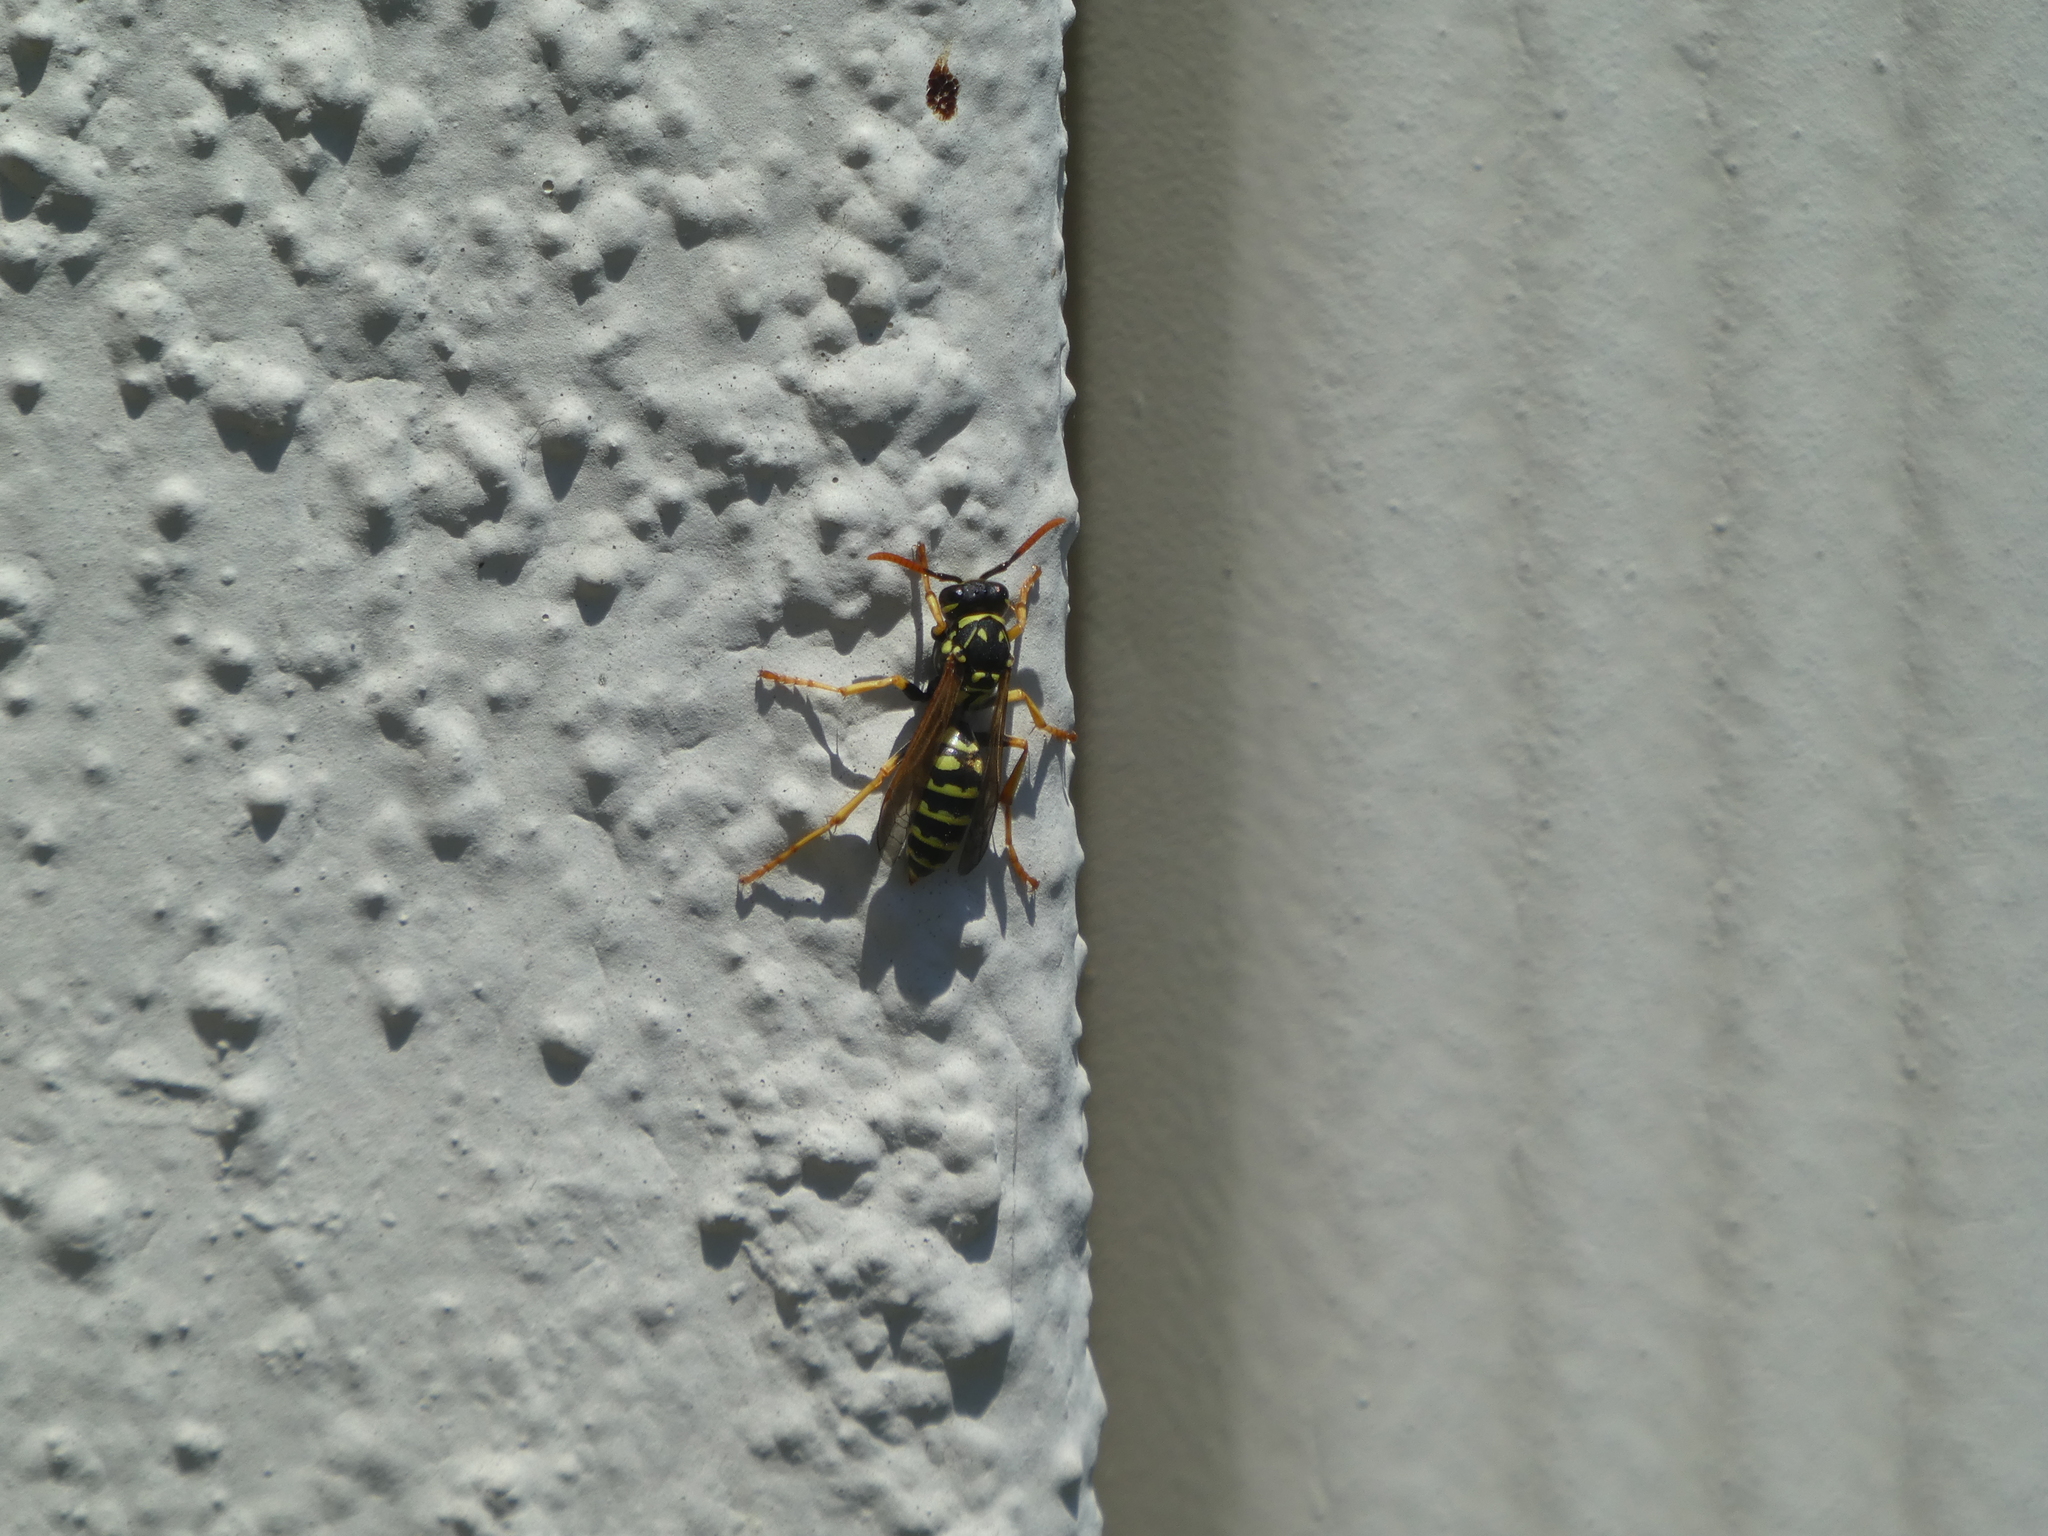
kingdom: Animalia
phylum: Arthropoda
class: Insecta
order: Hymenoptera
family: Eumenidae
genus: Polistes
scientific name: Polistes dominula
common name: Paper wasp
